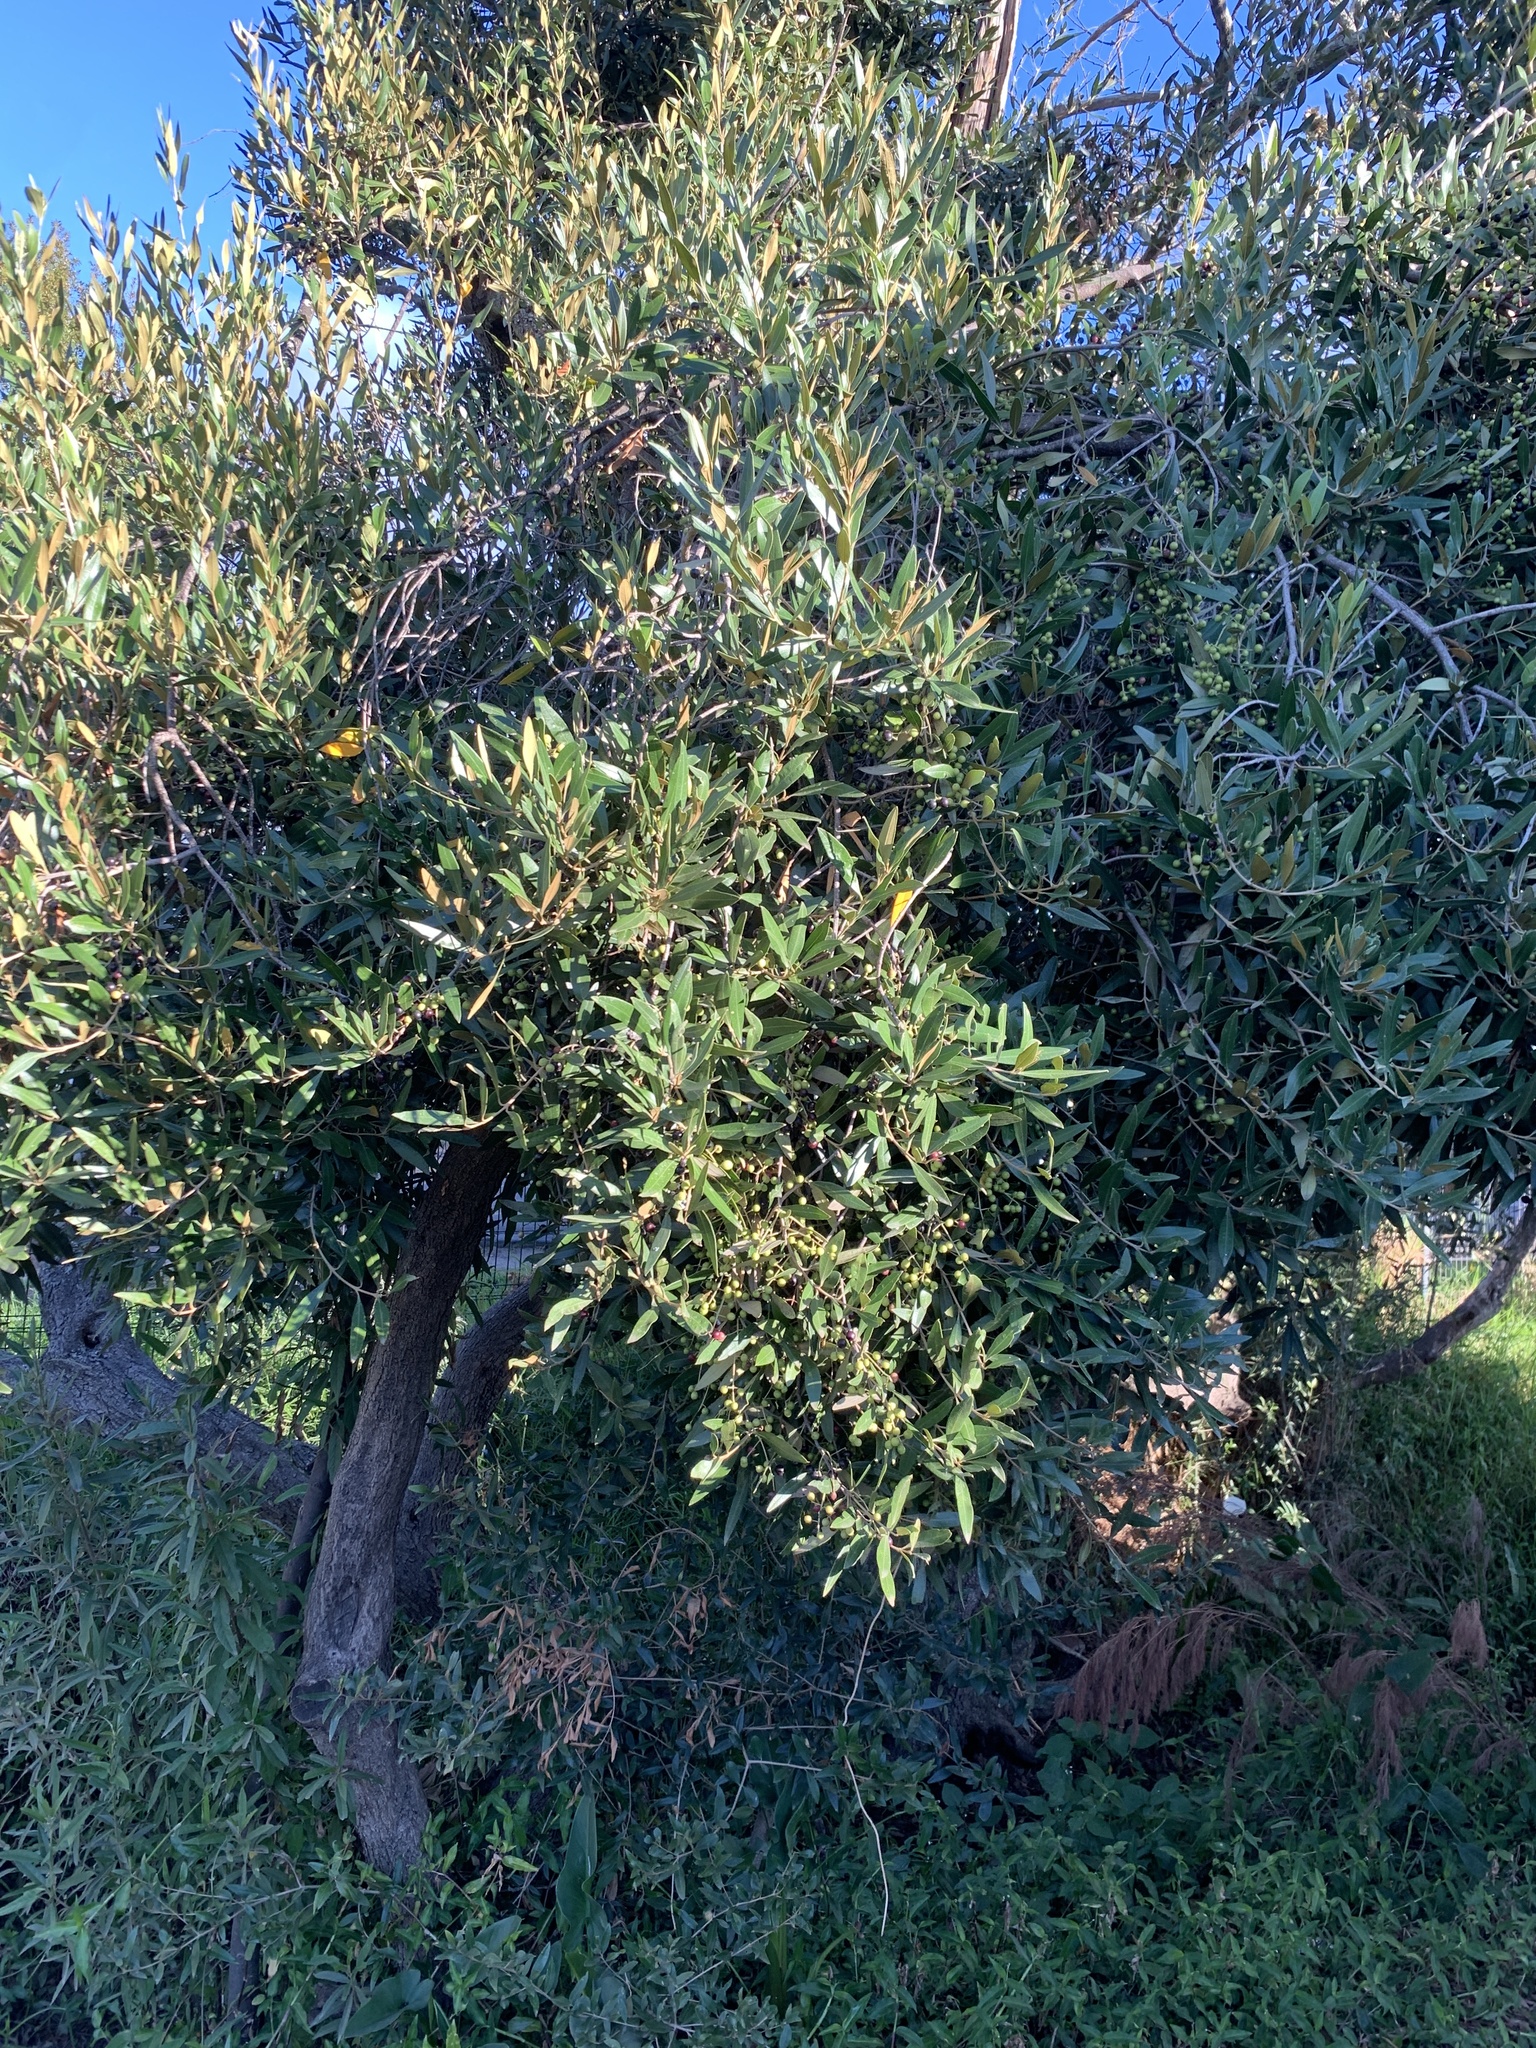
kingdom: Plantae
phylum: Tracheophyta
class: Magnoliopsida
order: Lamiales
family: Oleaceae
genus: Olea
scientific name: Olea europaea
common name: Olive
